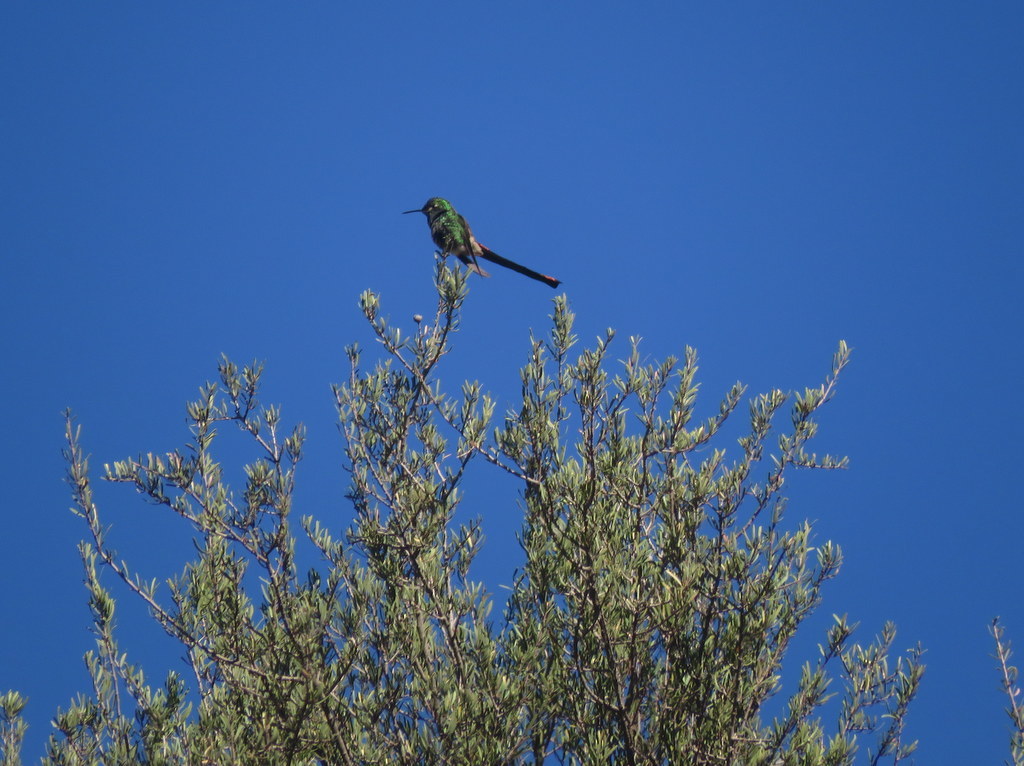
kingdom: Animalia
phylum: Chordata
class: Aves
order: Apodiformes
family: Trochilidae
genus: Sappho
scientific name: Sappho sparganurus
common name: Red-tailed comet
